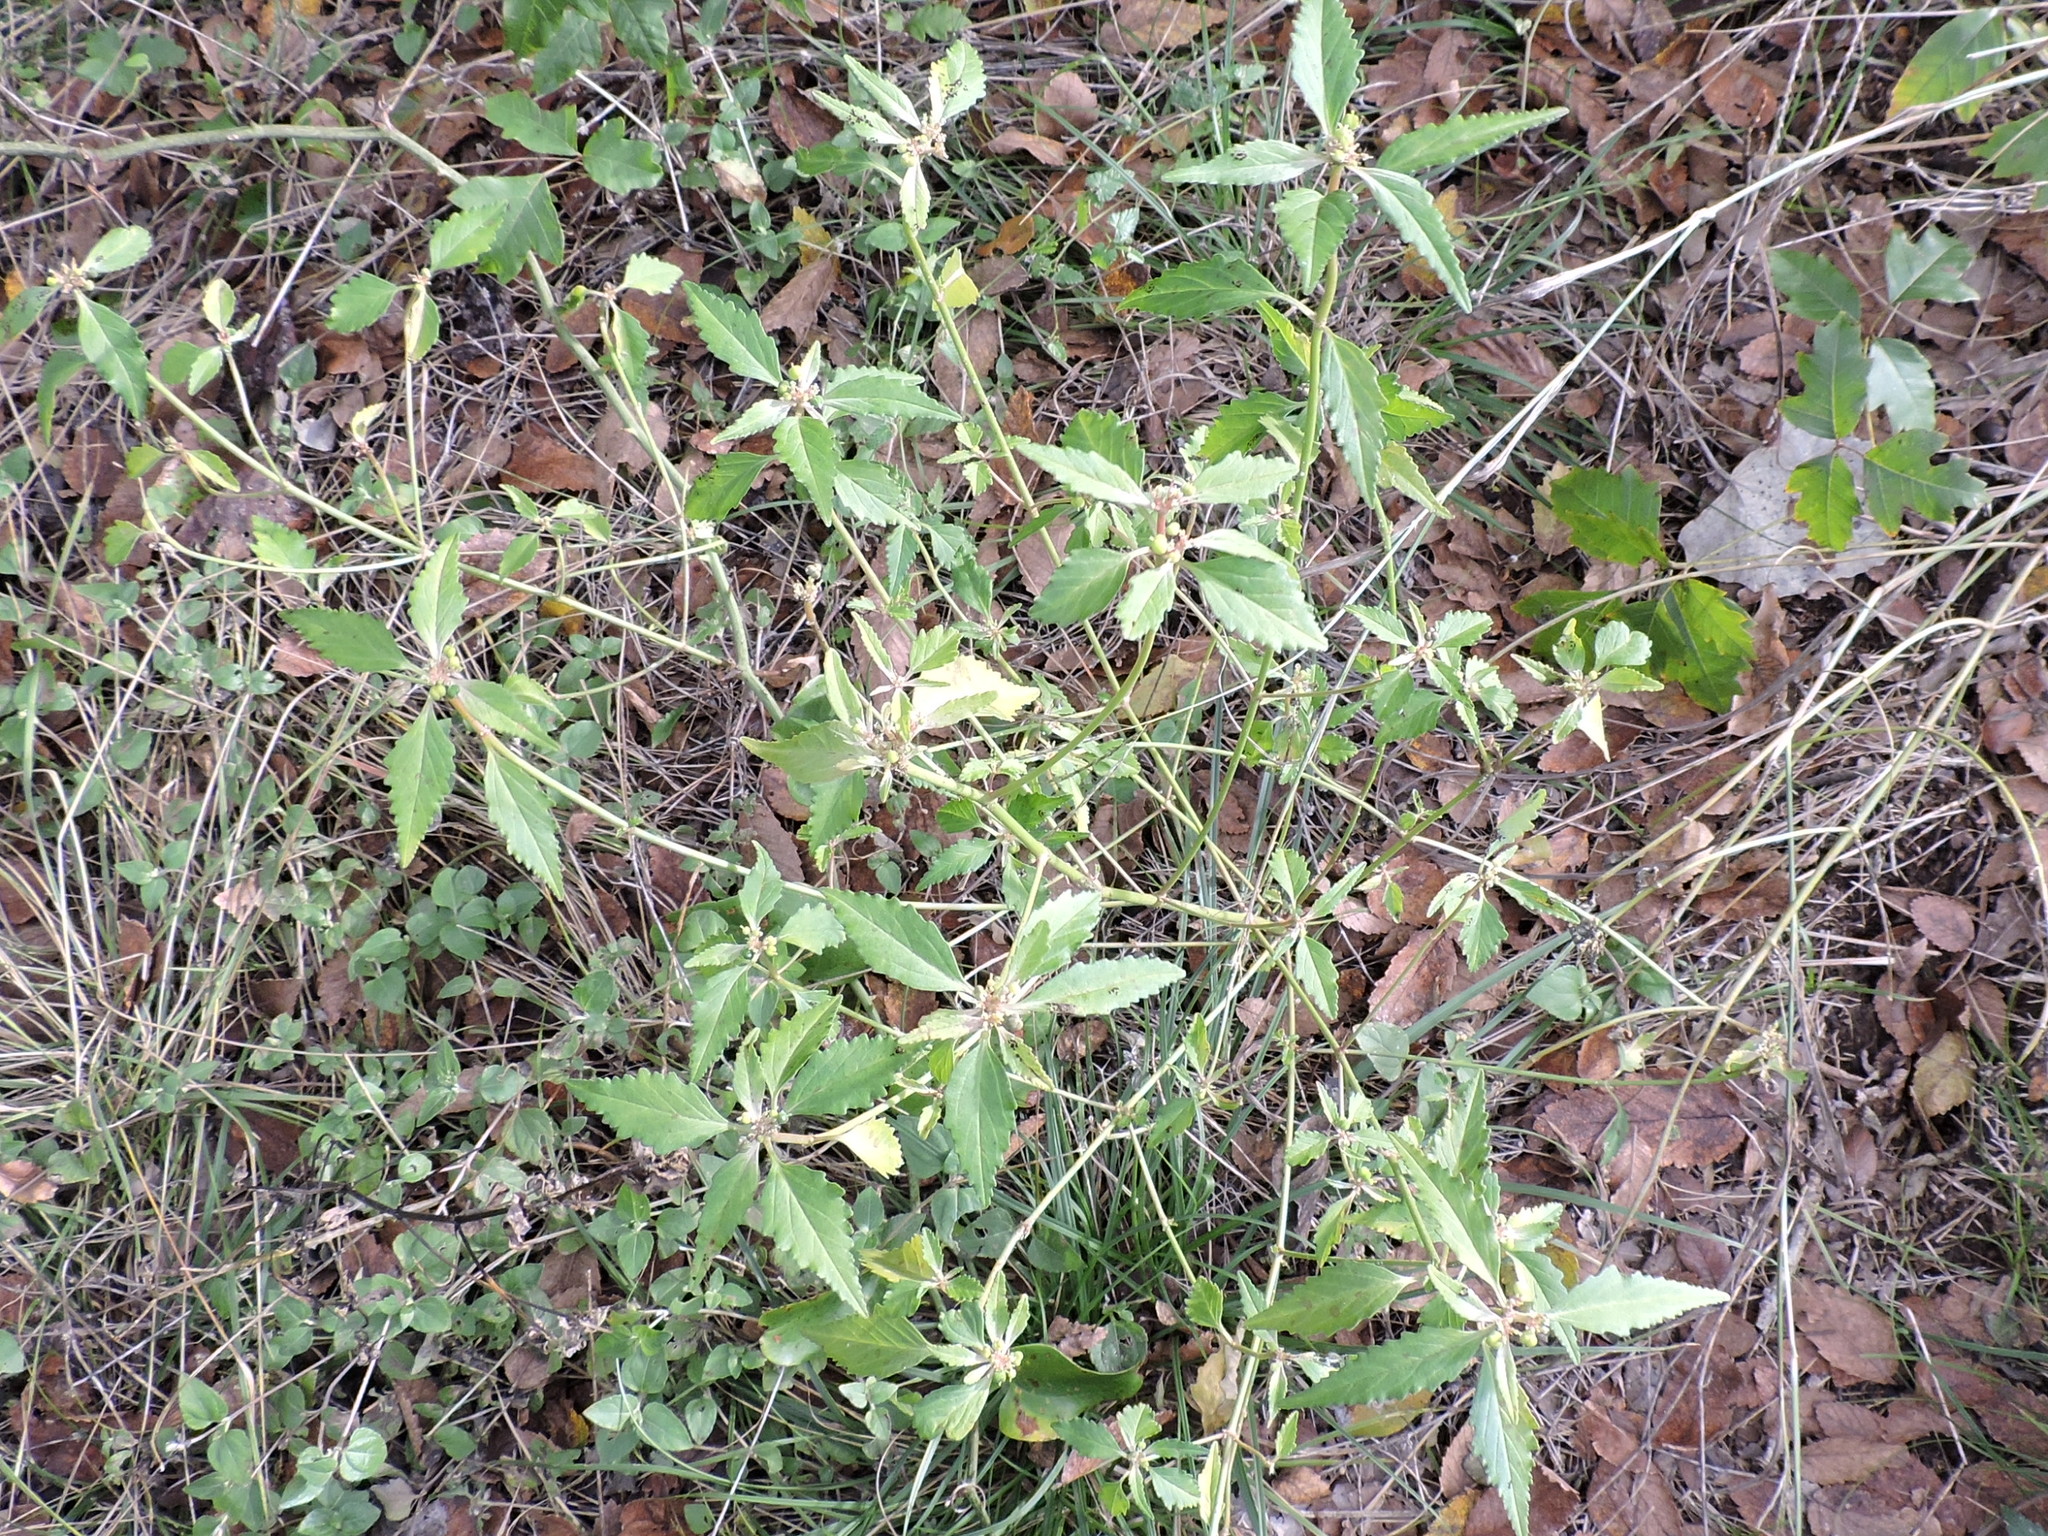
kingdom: Plantae
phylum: Tracheophyta
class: Magnoliopsida
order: Malpighiales
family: Euphorbiaceae
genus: Euphorbia
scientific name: Euphorbia dentata
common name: Dentate spurge
